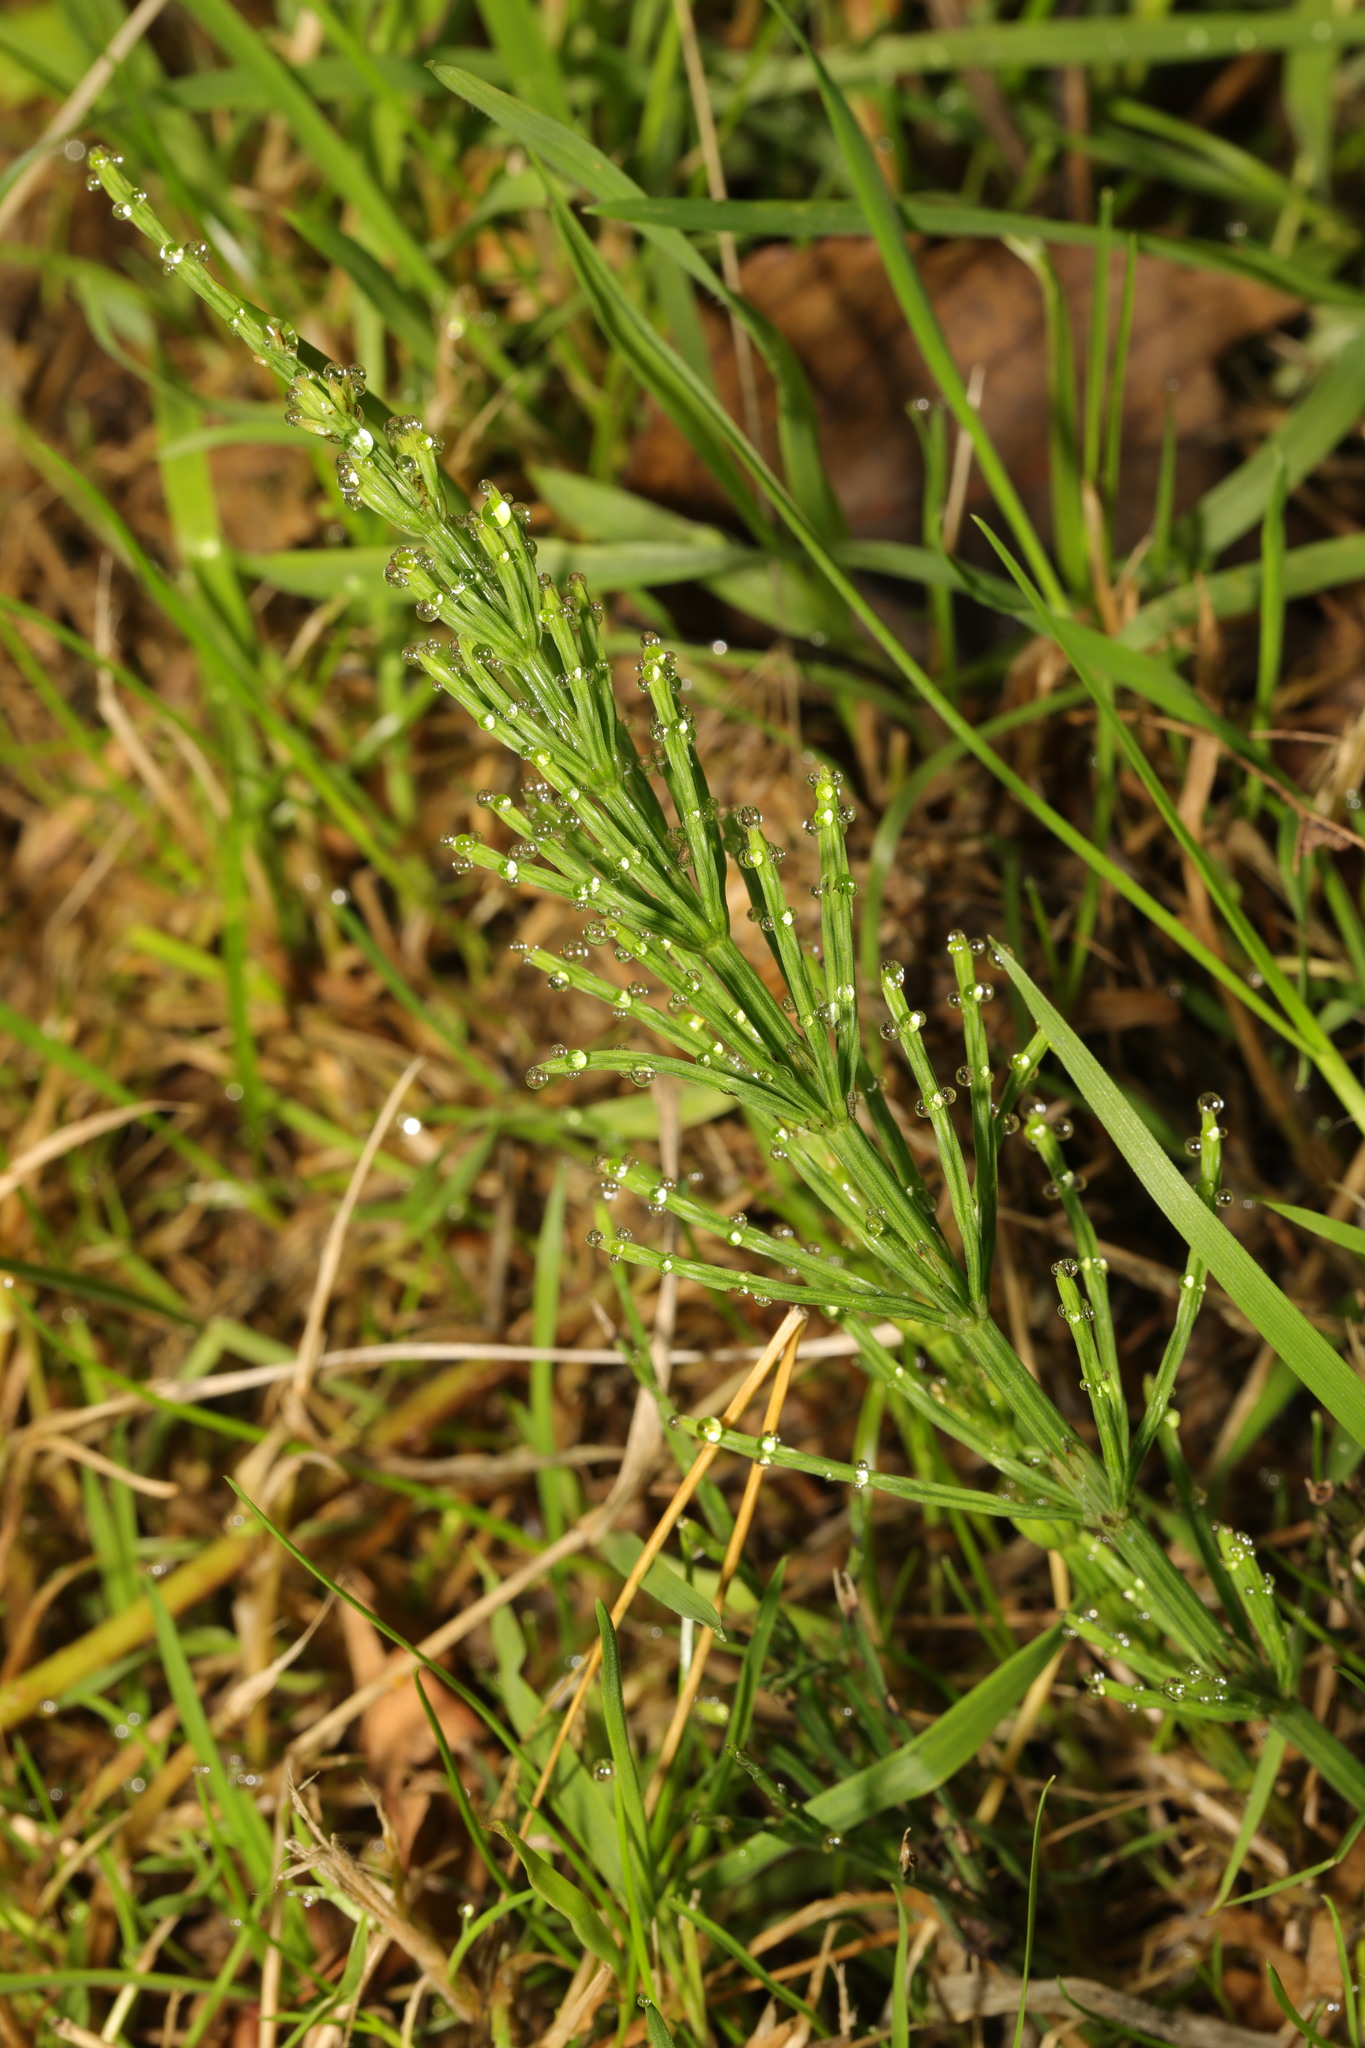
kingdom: Plantae
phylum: Tracheophyta
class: Polypodiopsida
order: Equisetales
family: Equisetaceae
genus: Equisetum
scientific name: Equisetum arvense
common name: Field horsetail
